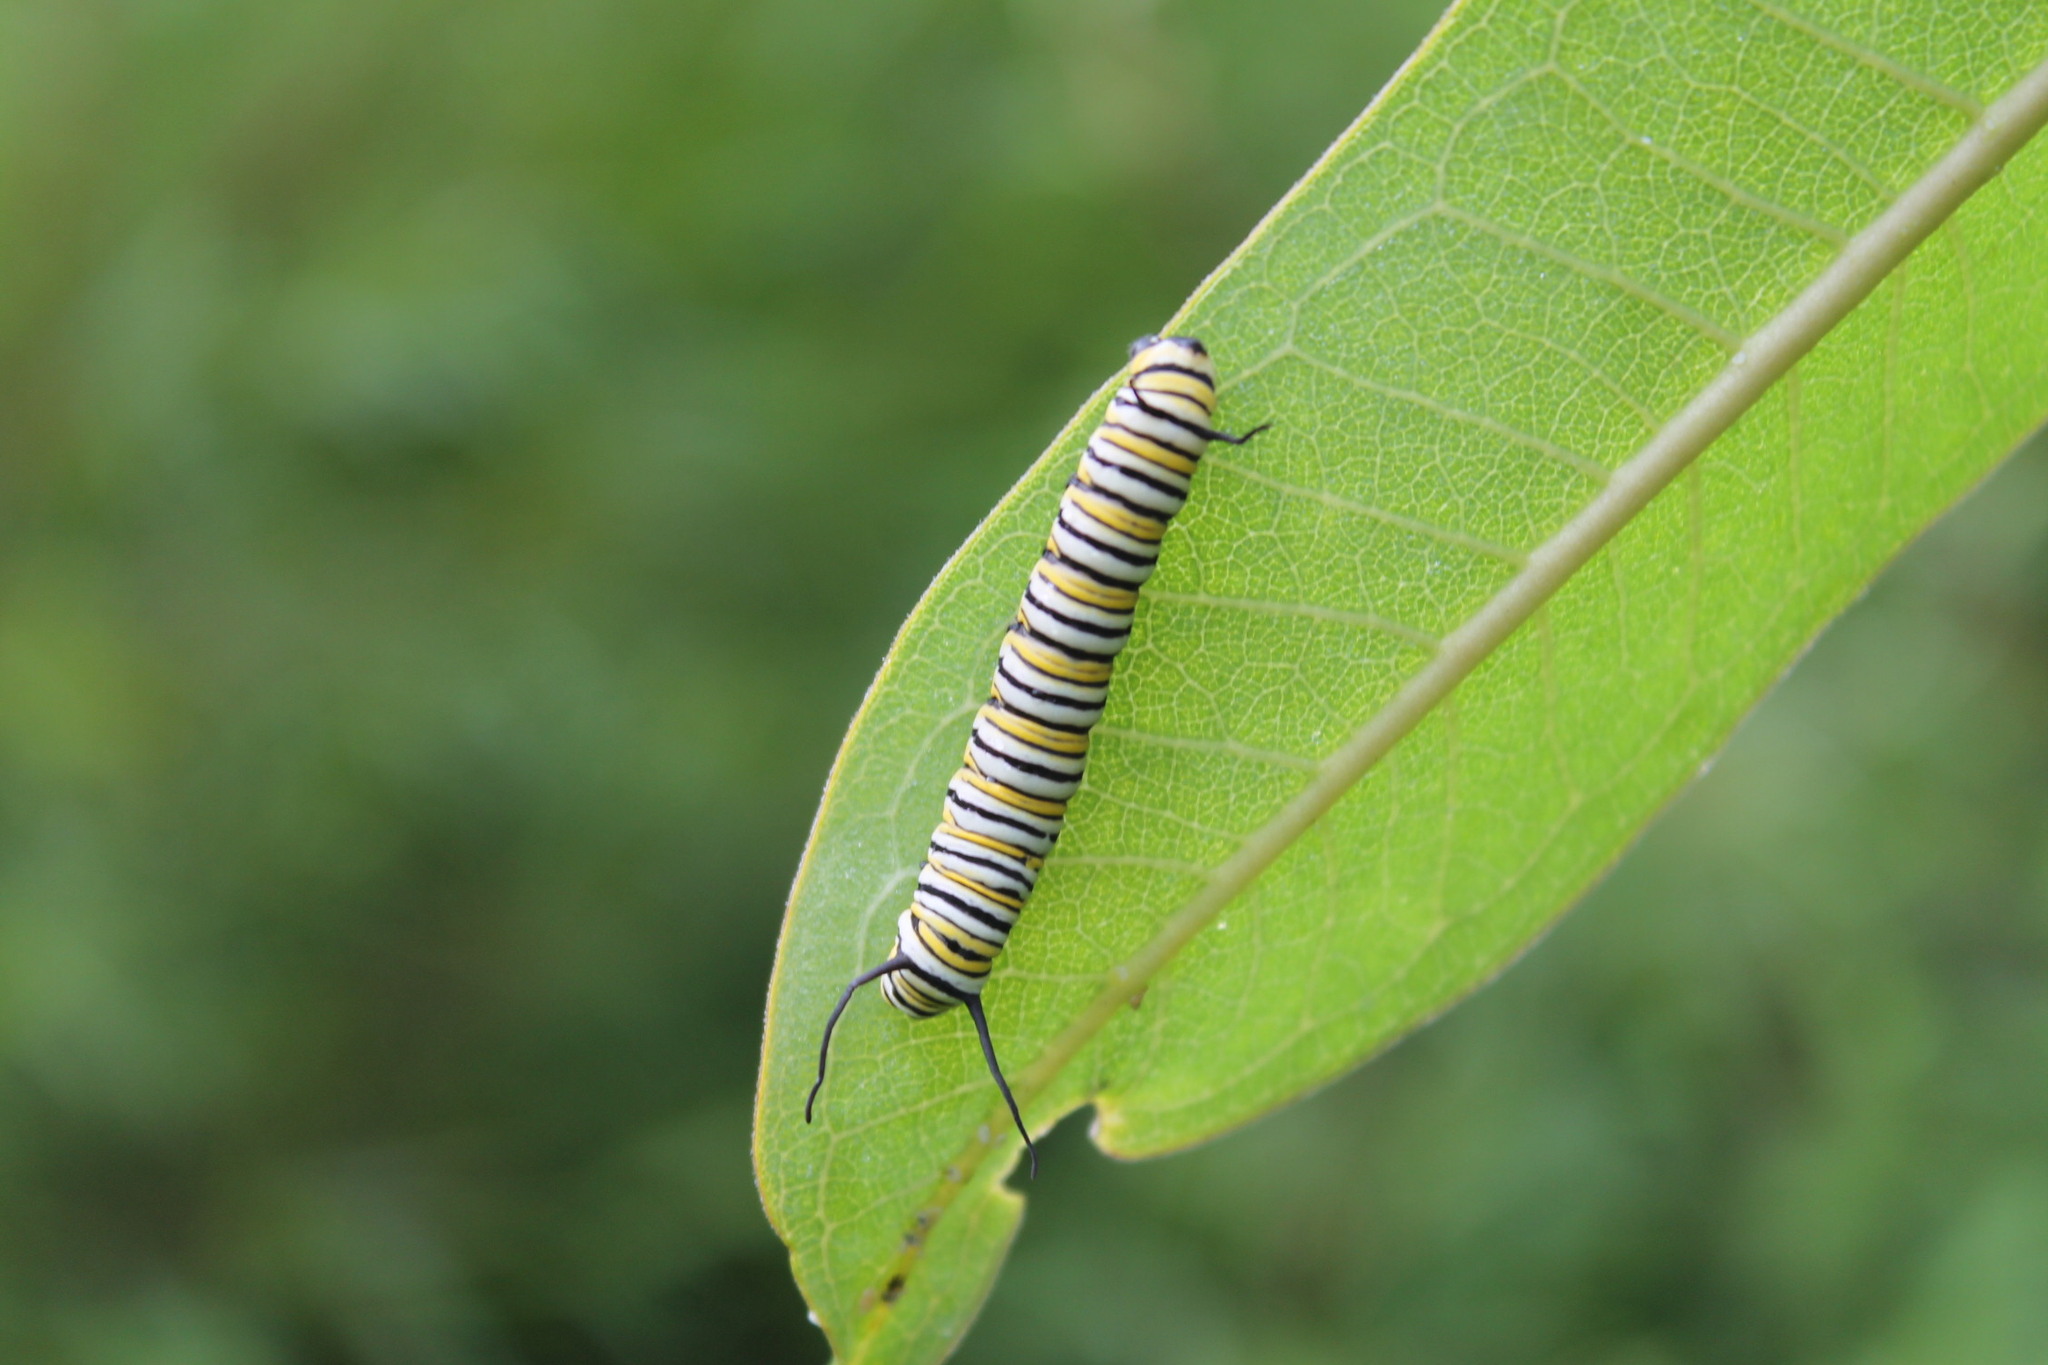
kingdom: Animalia
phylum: Arthropoda
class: Insecta
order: Lepidoptera
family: Nymphalidae
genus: Danaus
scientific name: Danaus plexippus
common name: Monarch
